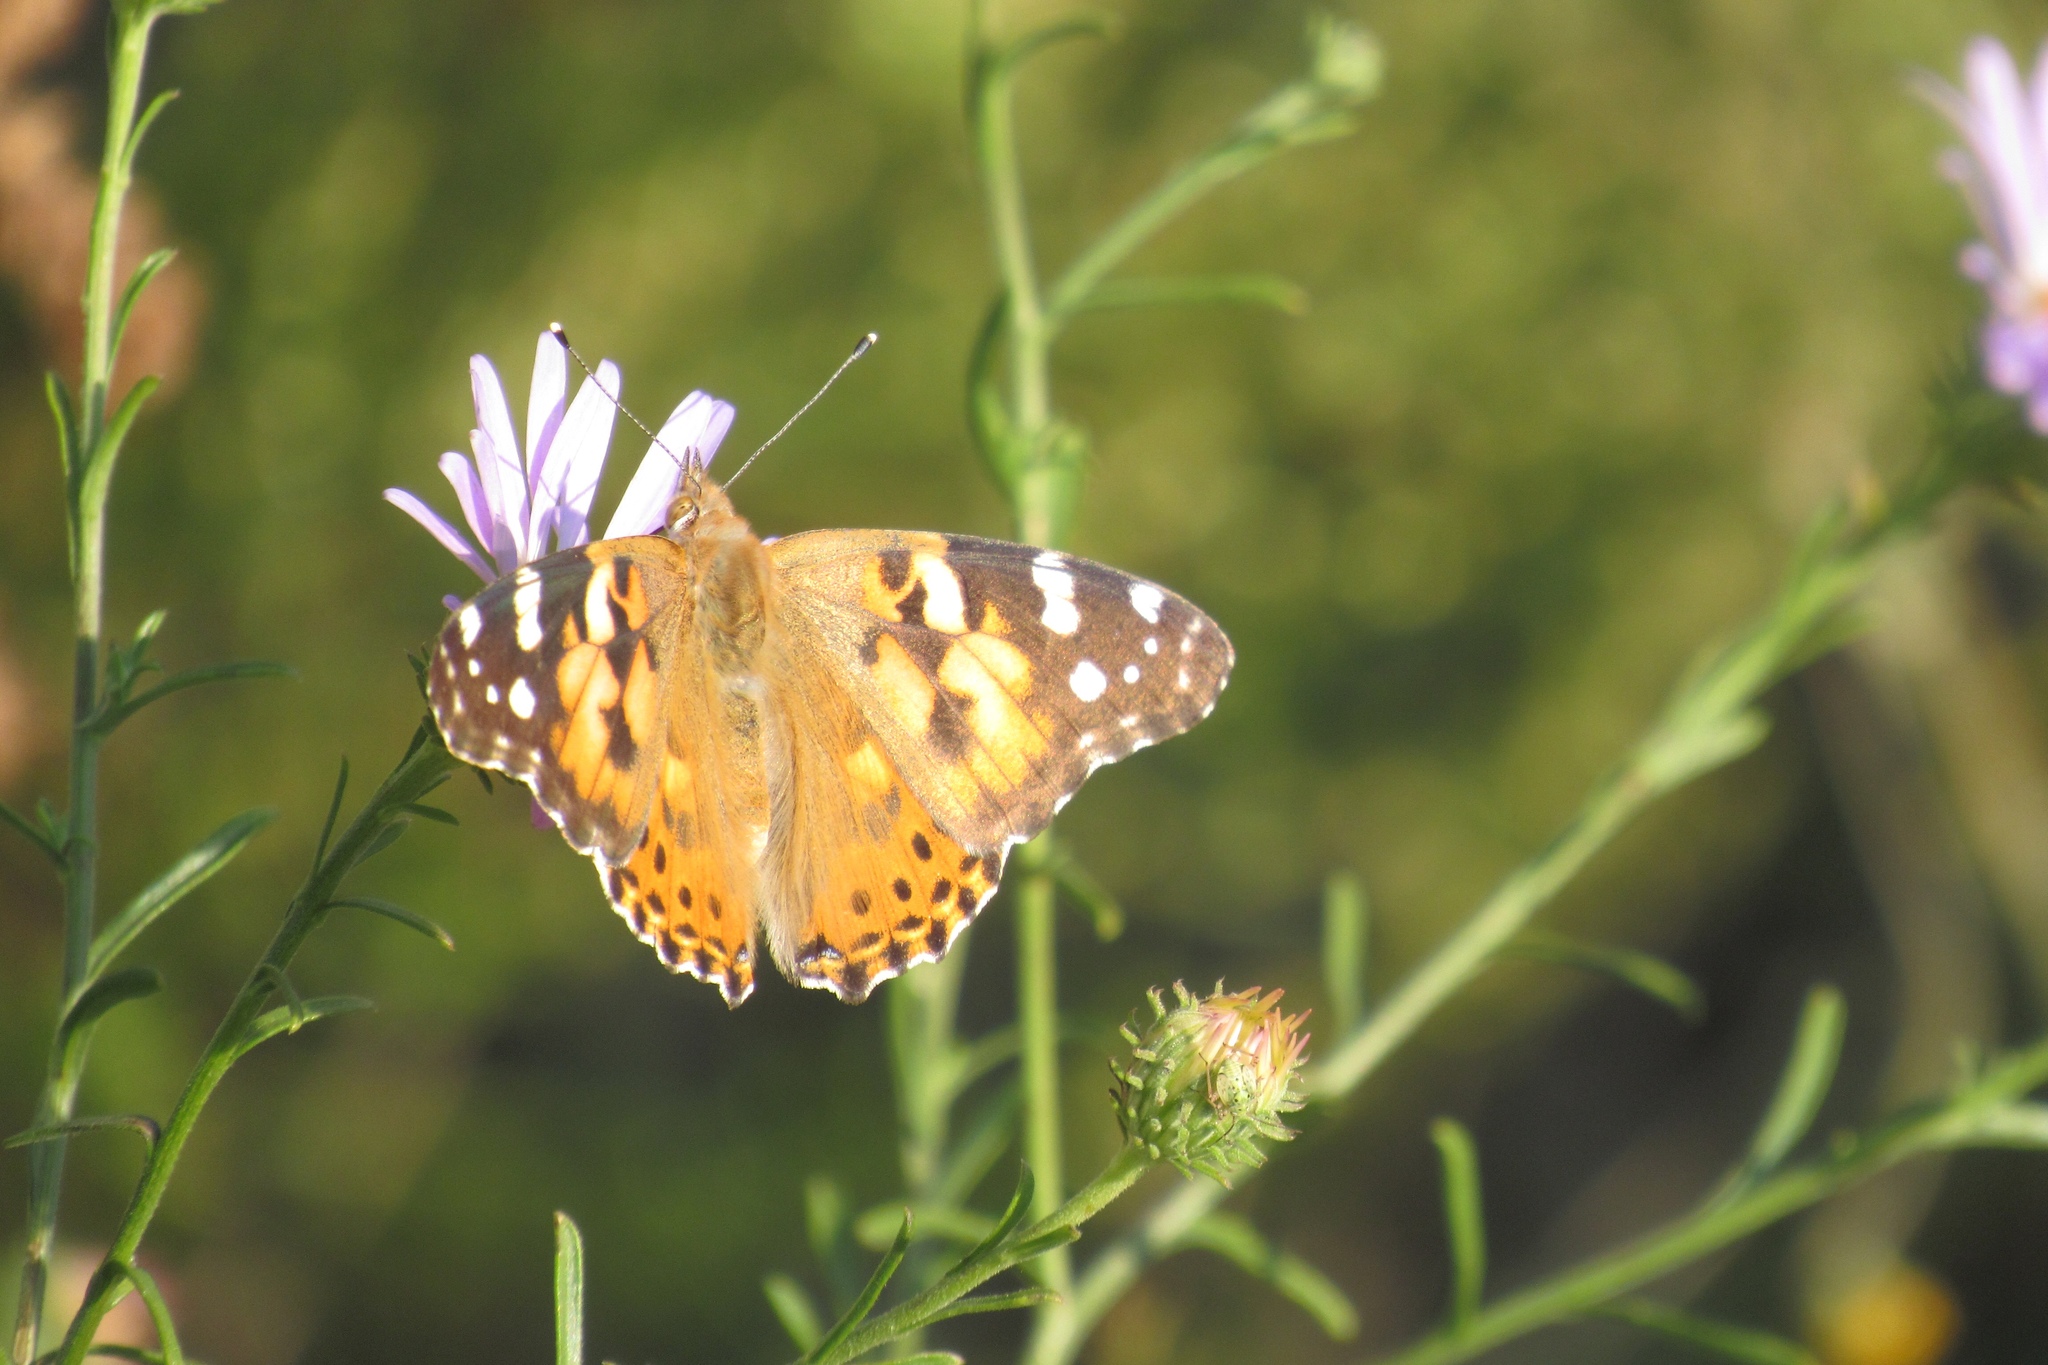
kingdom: Animalia
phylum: Arthropoda
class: Insecta
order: Lepidoptera
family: Nymphalidae
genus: Vanessa
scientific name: Vanessa cardui
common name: Painted lady
